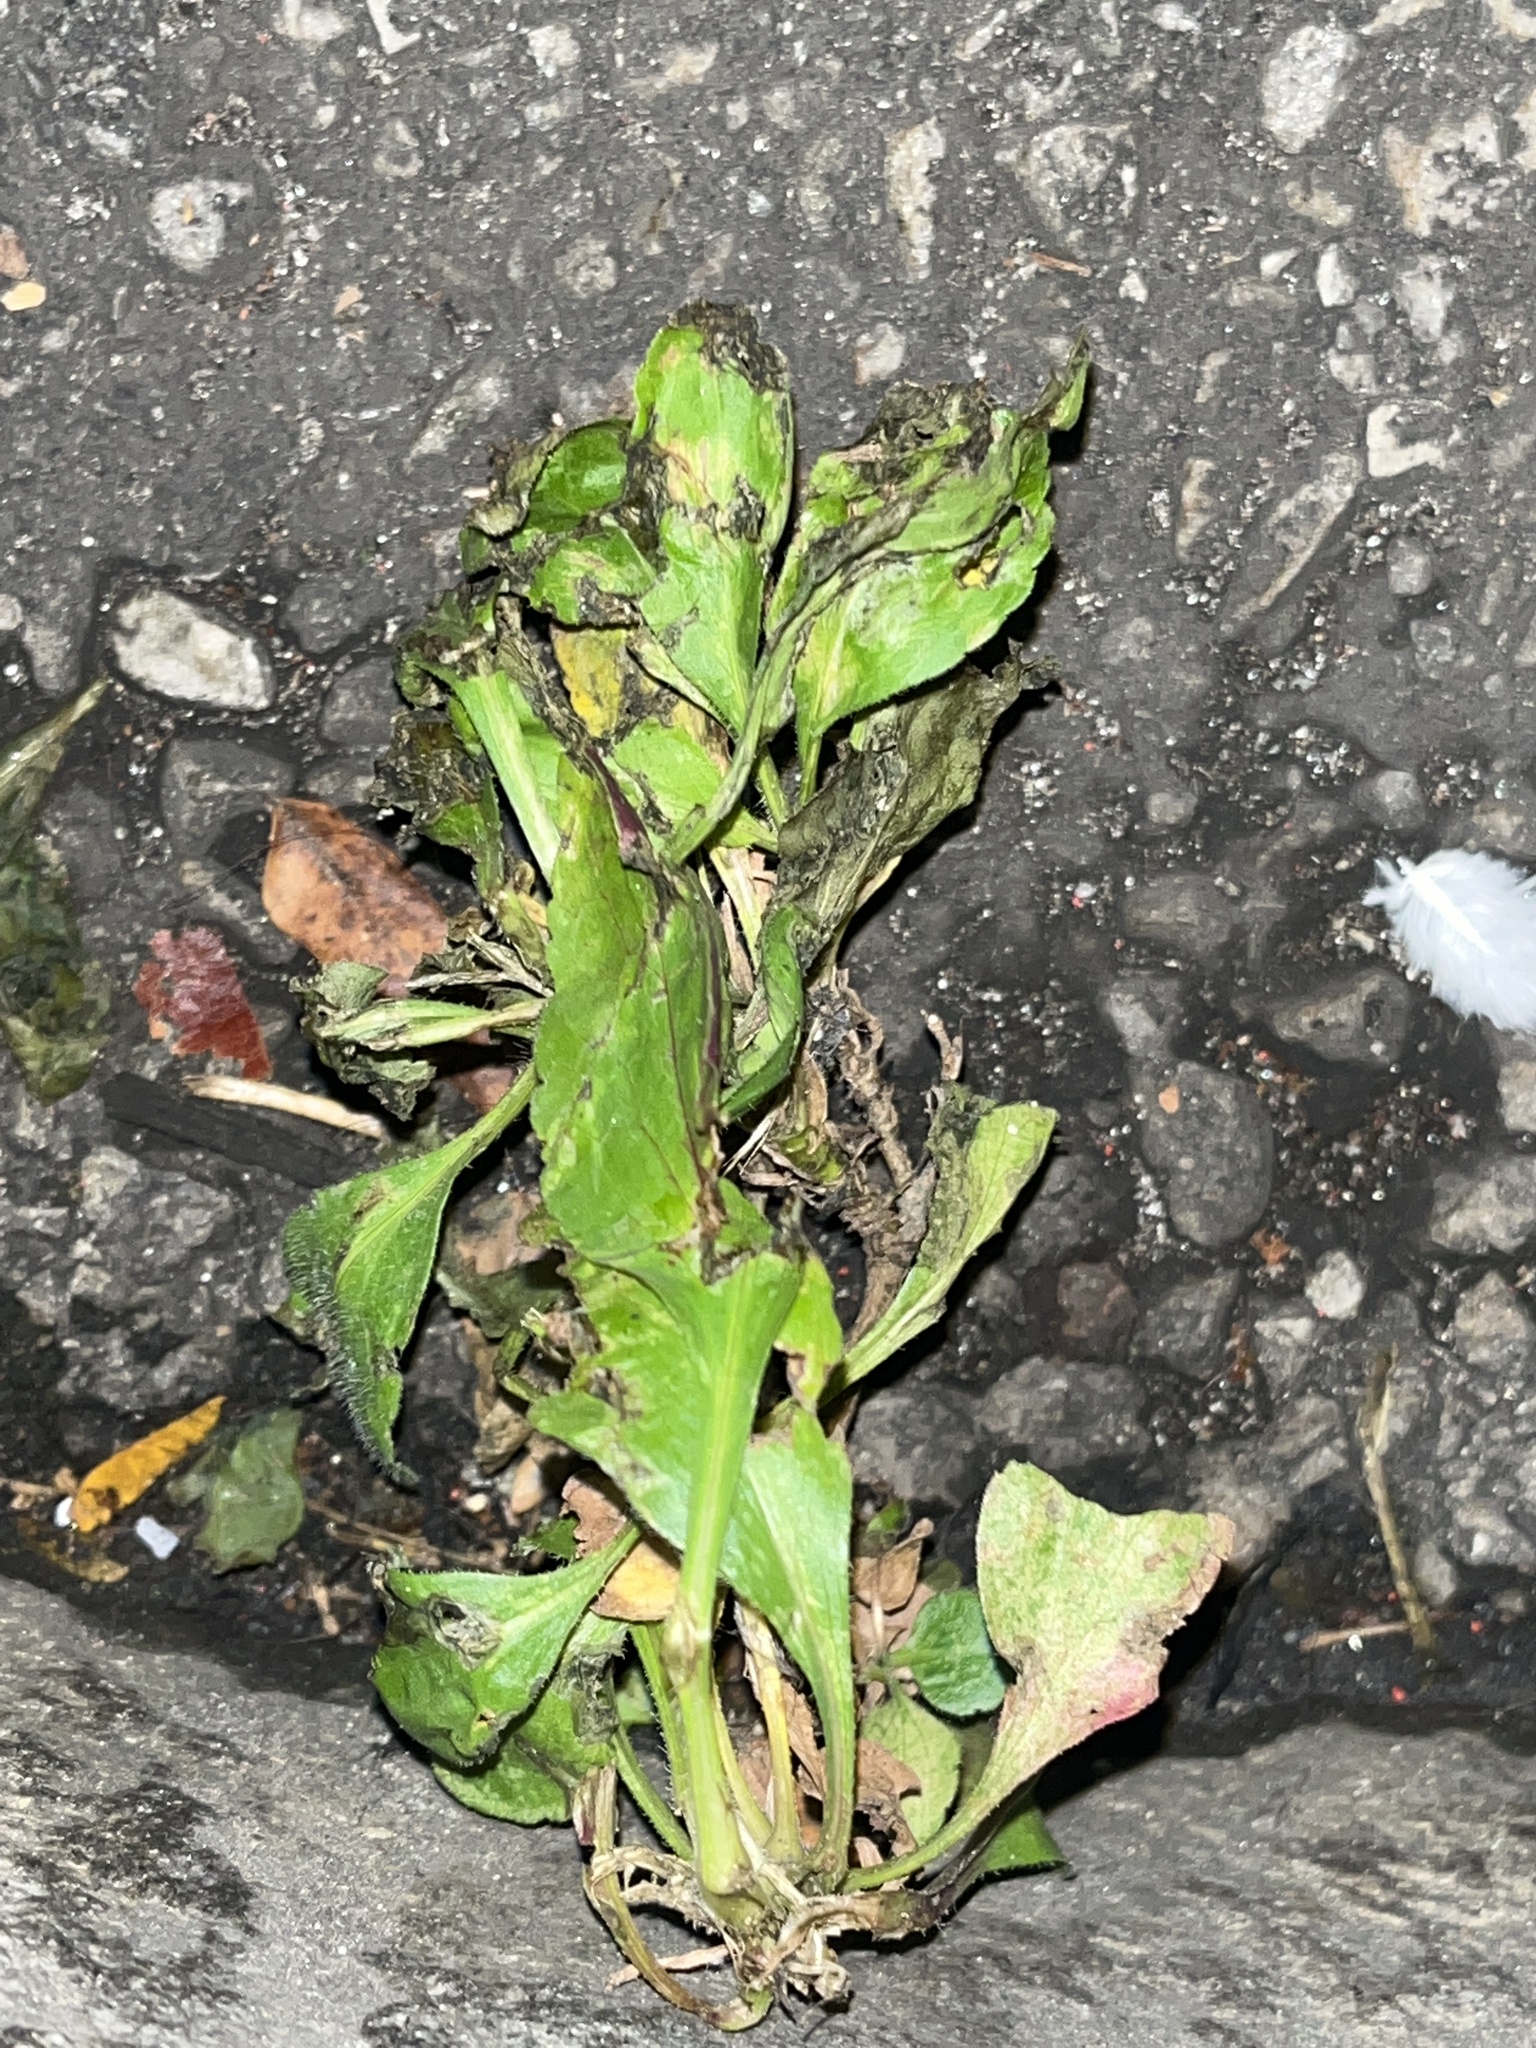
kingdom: Plantae
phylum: Tracheophyta
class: Magnoliopsida
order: Lamiales
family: Plantaginaceae
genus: Plantago
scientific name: Plantago rugelii
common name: American plantain
